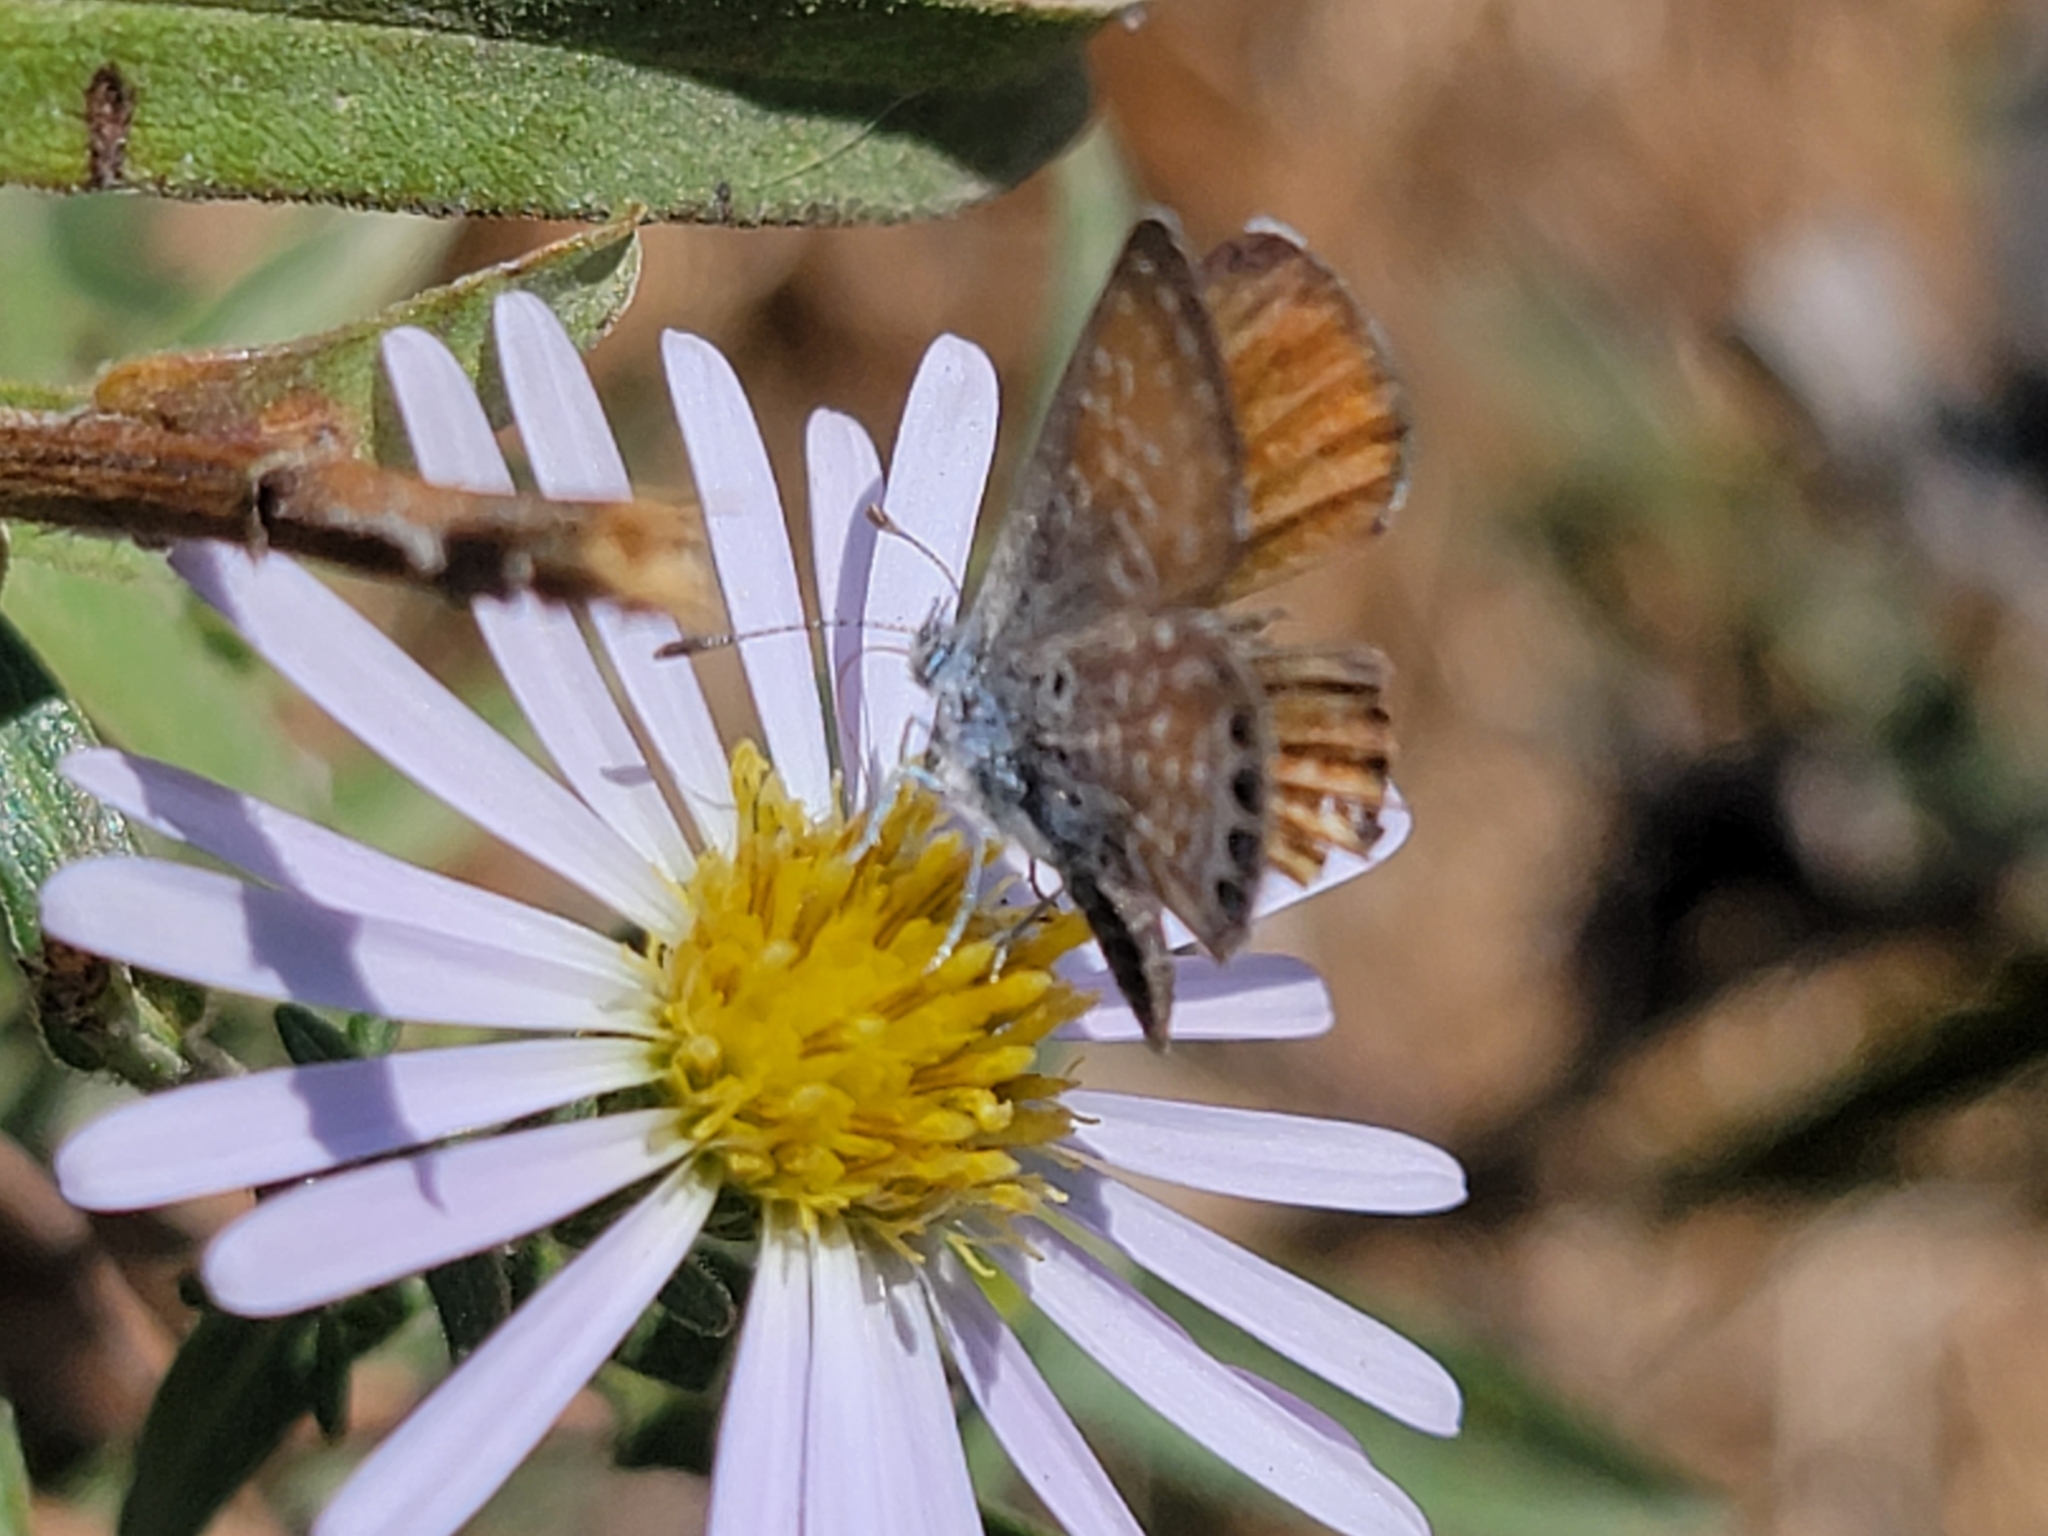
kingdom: Animalia
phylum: Arthropoda
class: Insecta
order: Lepidoptera
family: Lycaenidae
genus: Brephidium
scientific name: Brephidium exilis
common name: Pygmy blue
